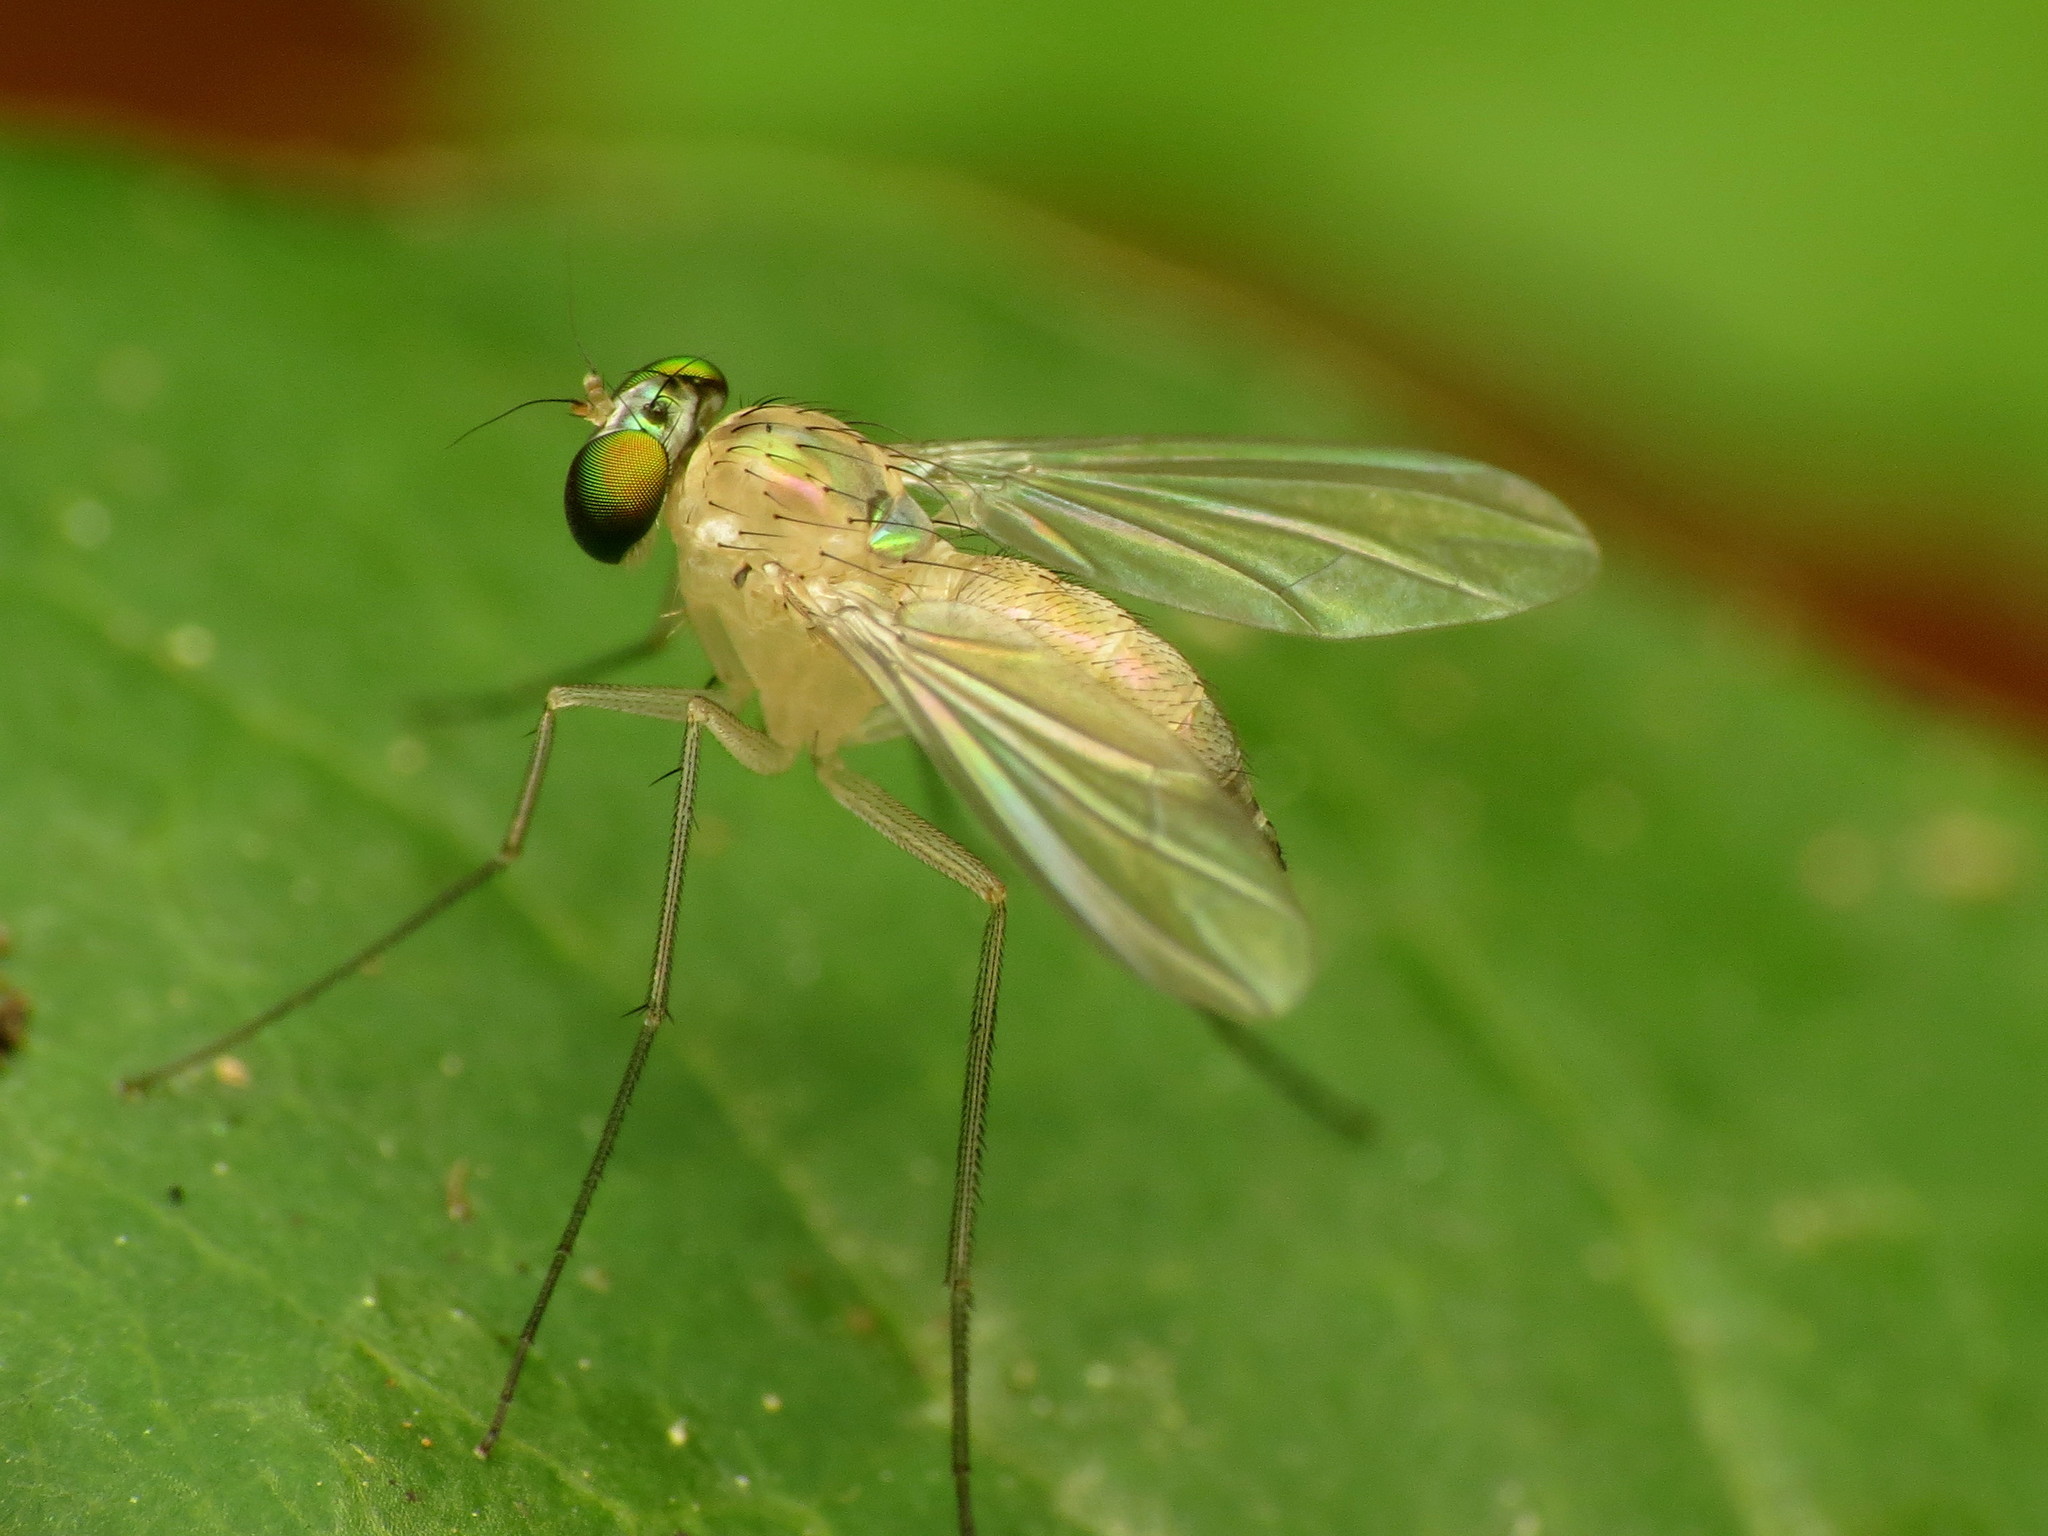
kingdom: Animalia
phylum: Arthropoda
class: Insecta
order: Diptera
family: Dolichopodidae
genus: Amblypsilopus
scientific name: Amblypsilopus dorsalis
